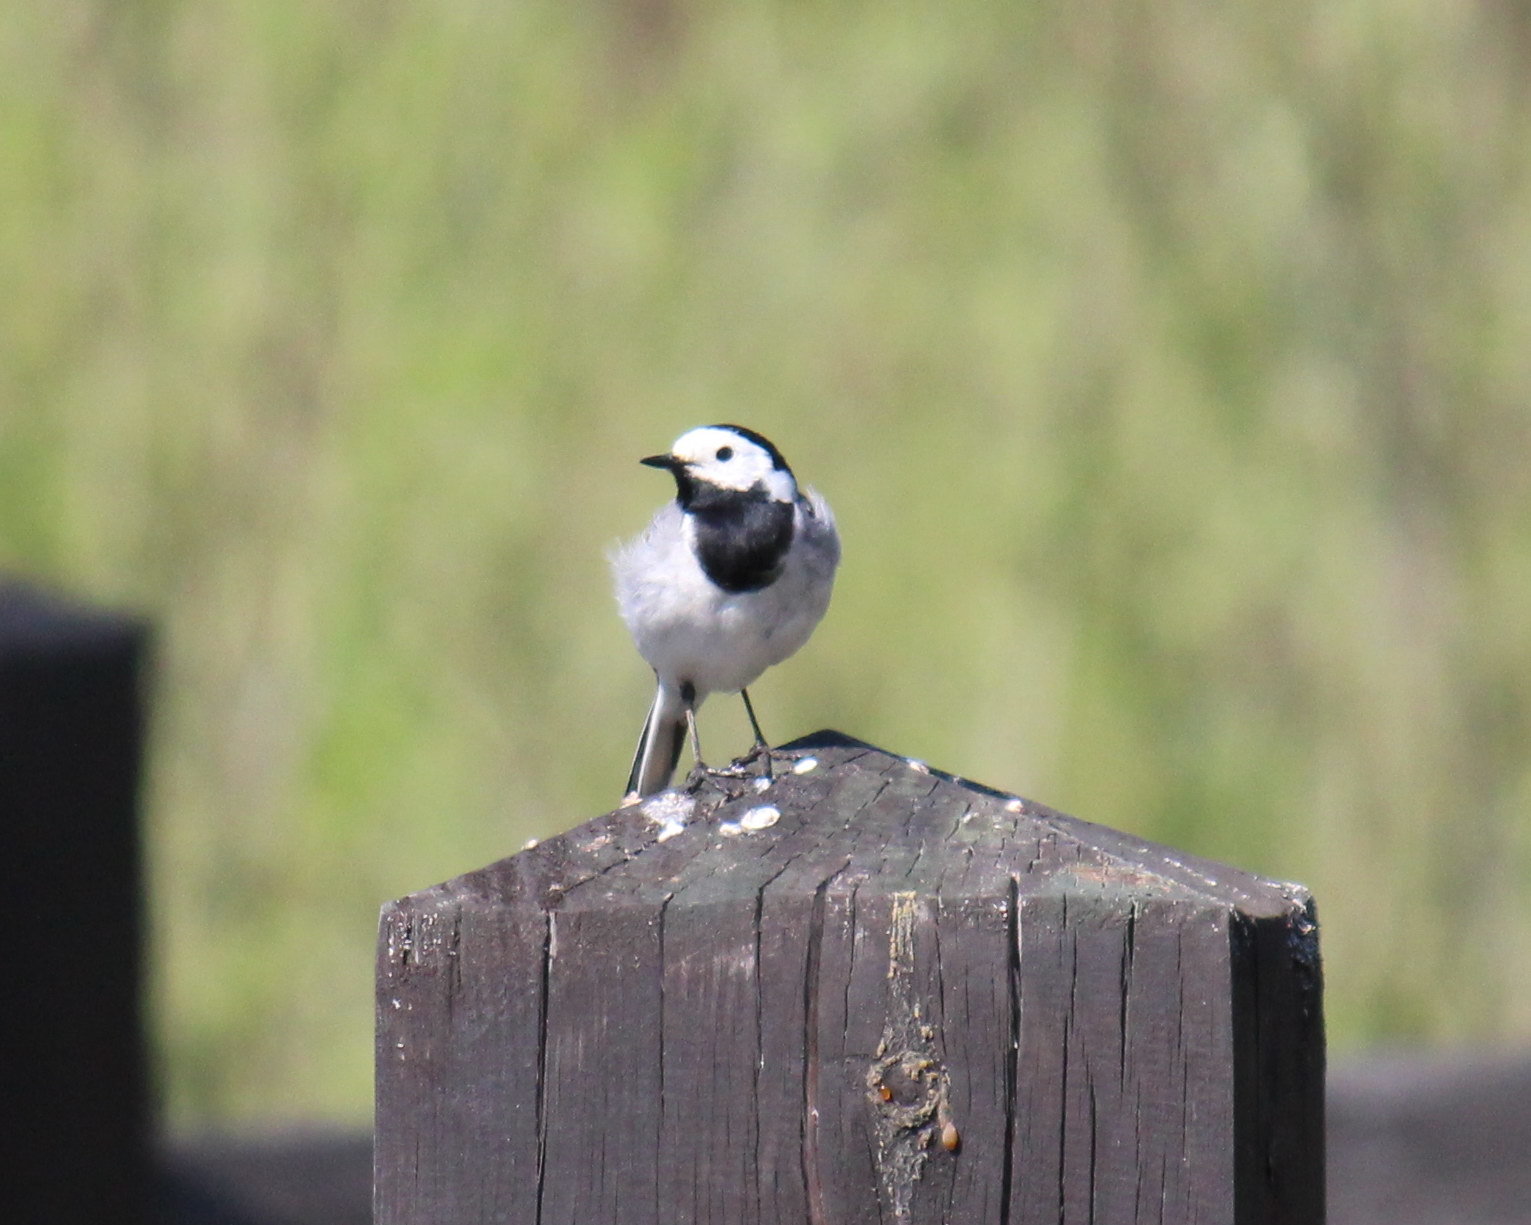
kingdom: Animalia
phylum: Chordata
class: Aves
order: Passeriformes
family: Motacillidae
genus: Motacilla
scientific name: Motacilla alba
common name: White wagtail
